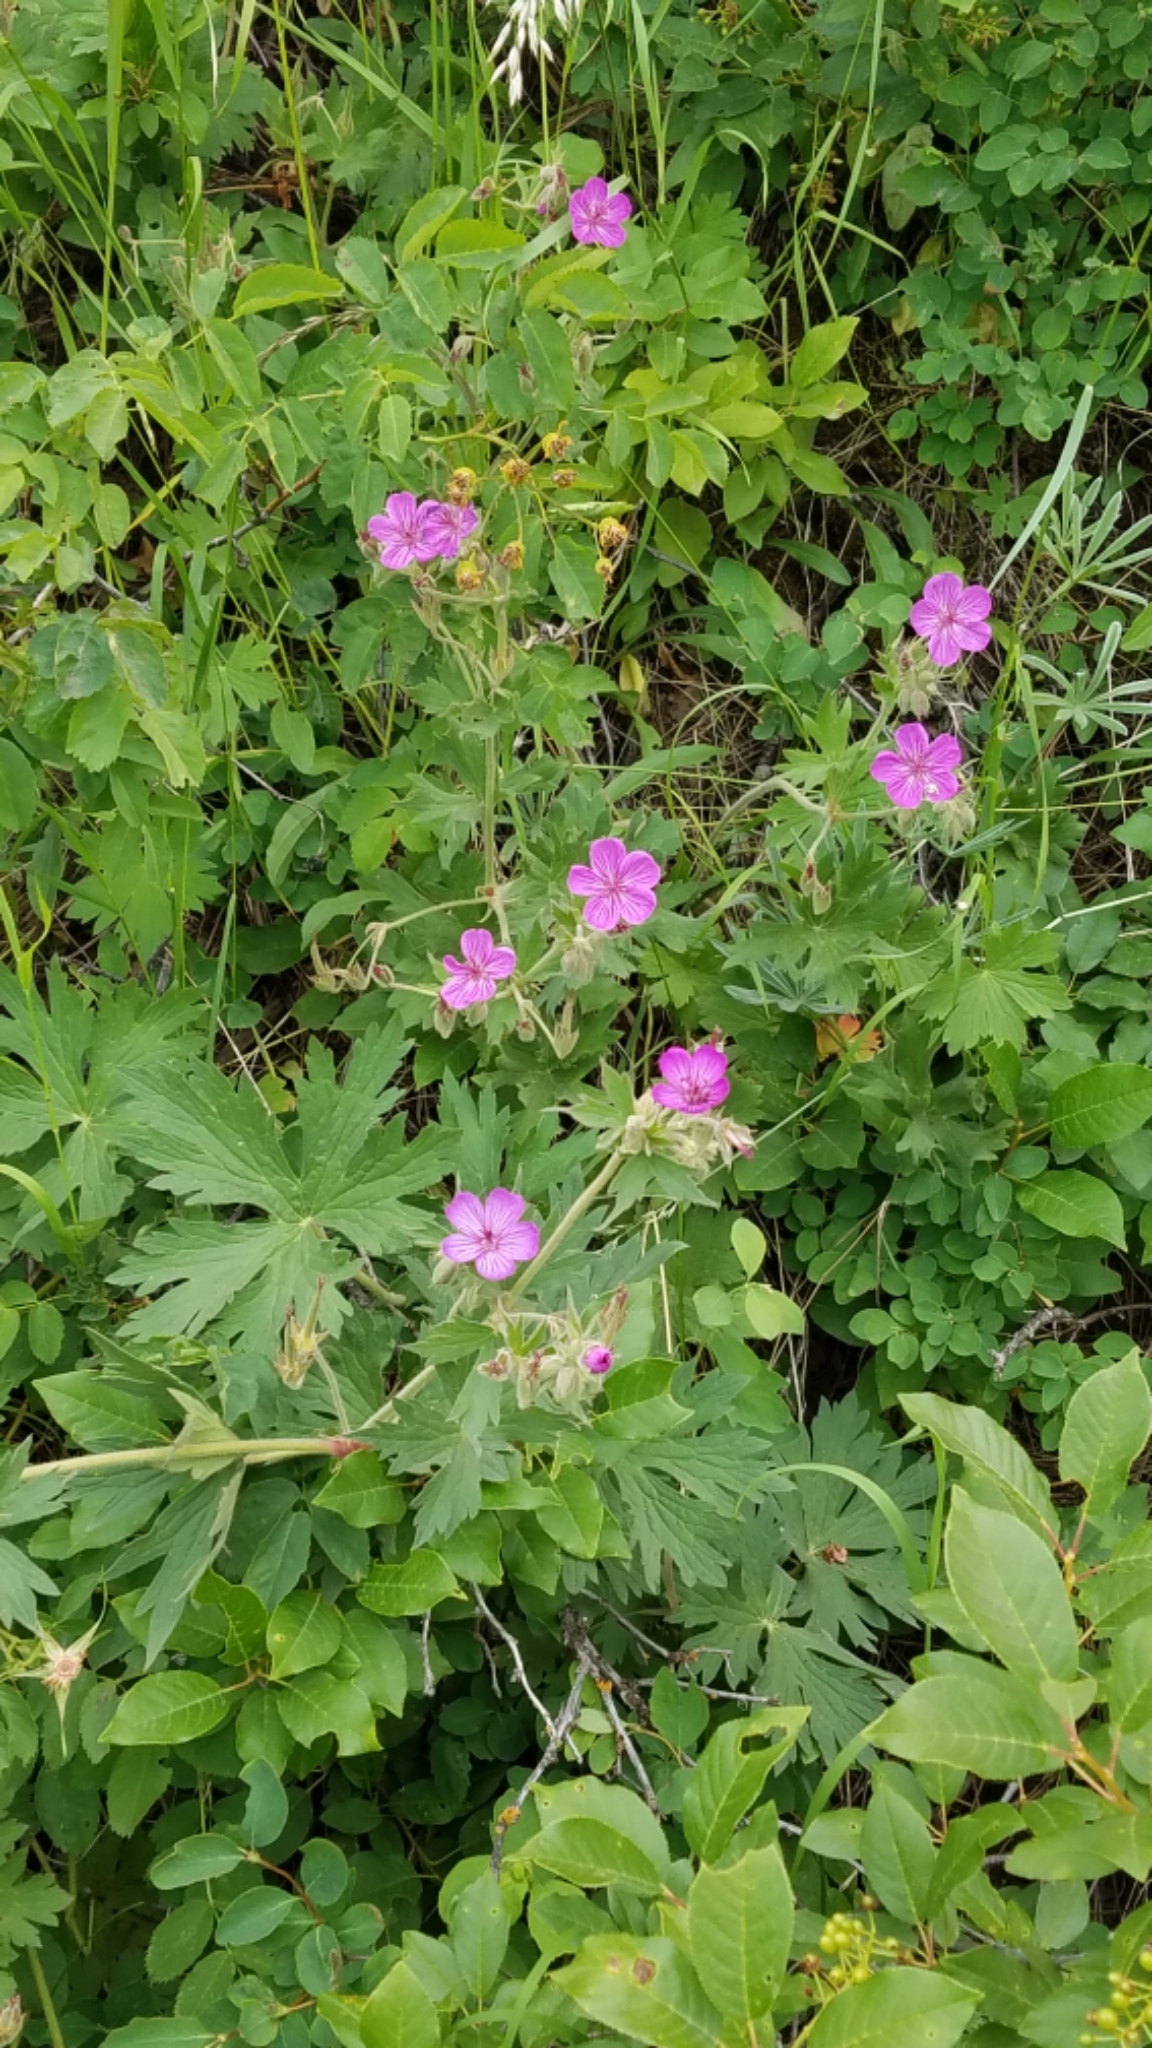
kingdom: Plantae
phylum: Tracheophyta
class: Magnoliopsida
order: Geraniales
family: Geraniaceae
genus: Geranium
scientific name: Geranium viscosissimum
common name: Purple geranium
